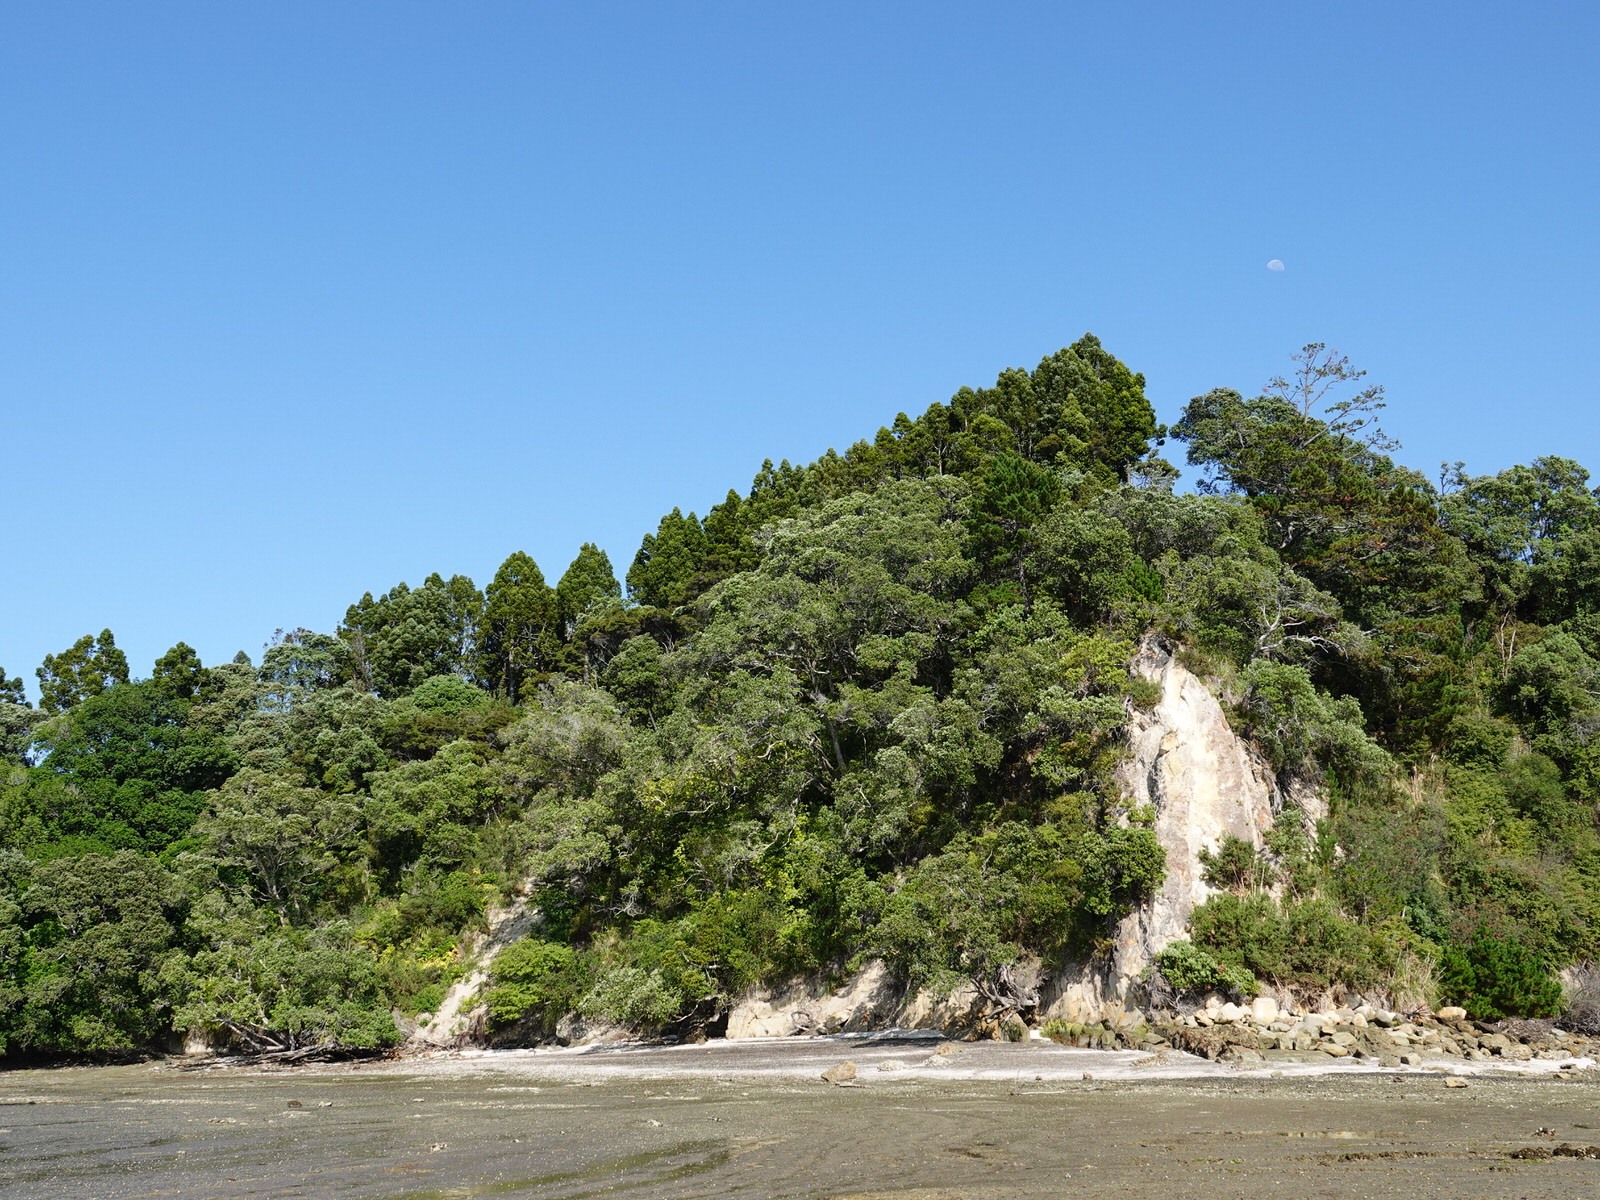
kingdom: Plantae
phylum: Tracheophyta
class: Pinopsida
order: Pinales
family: Araucariaceae
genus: Agathis
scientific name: Agathis australis
